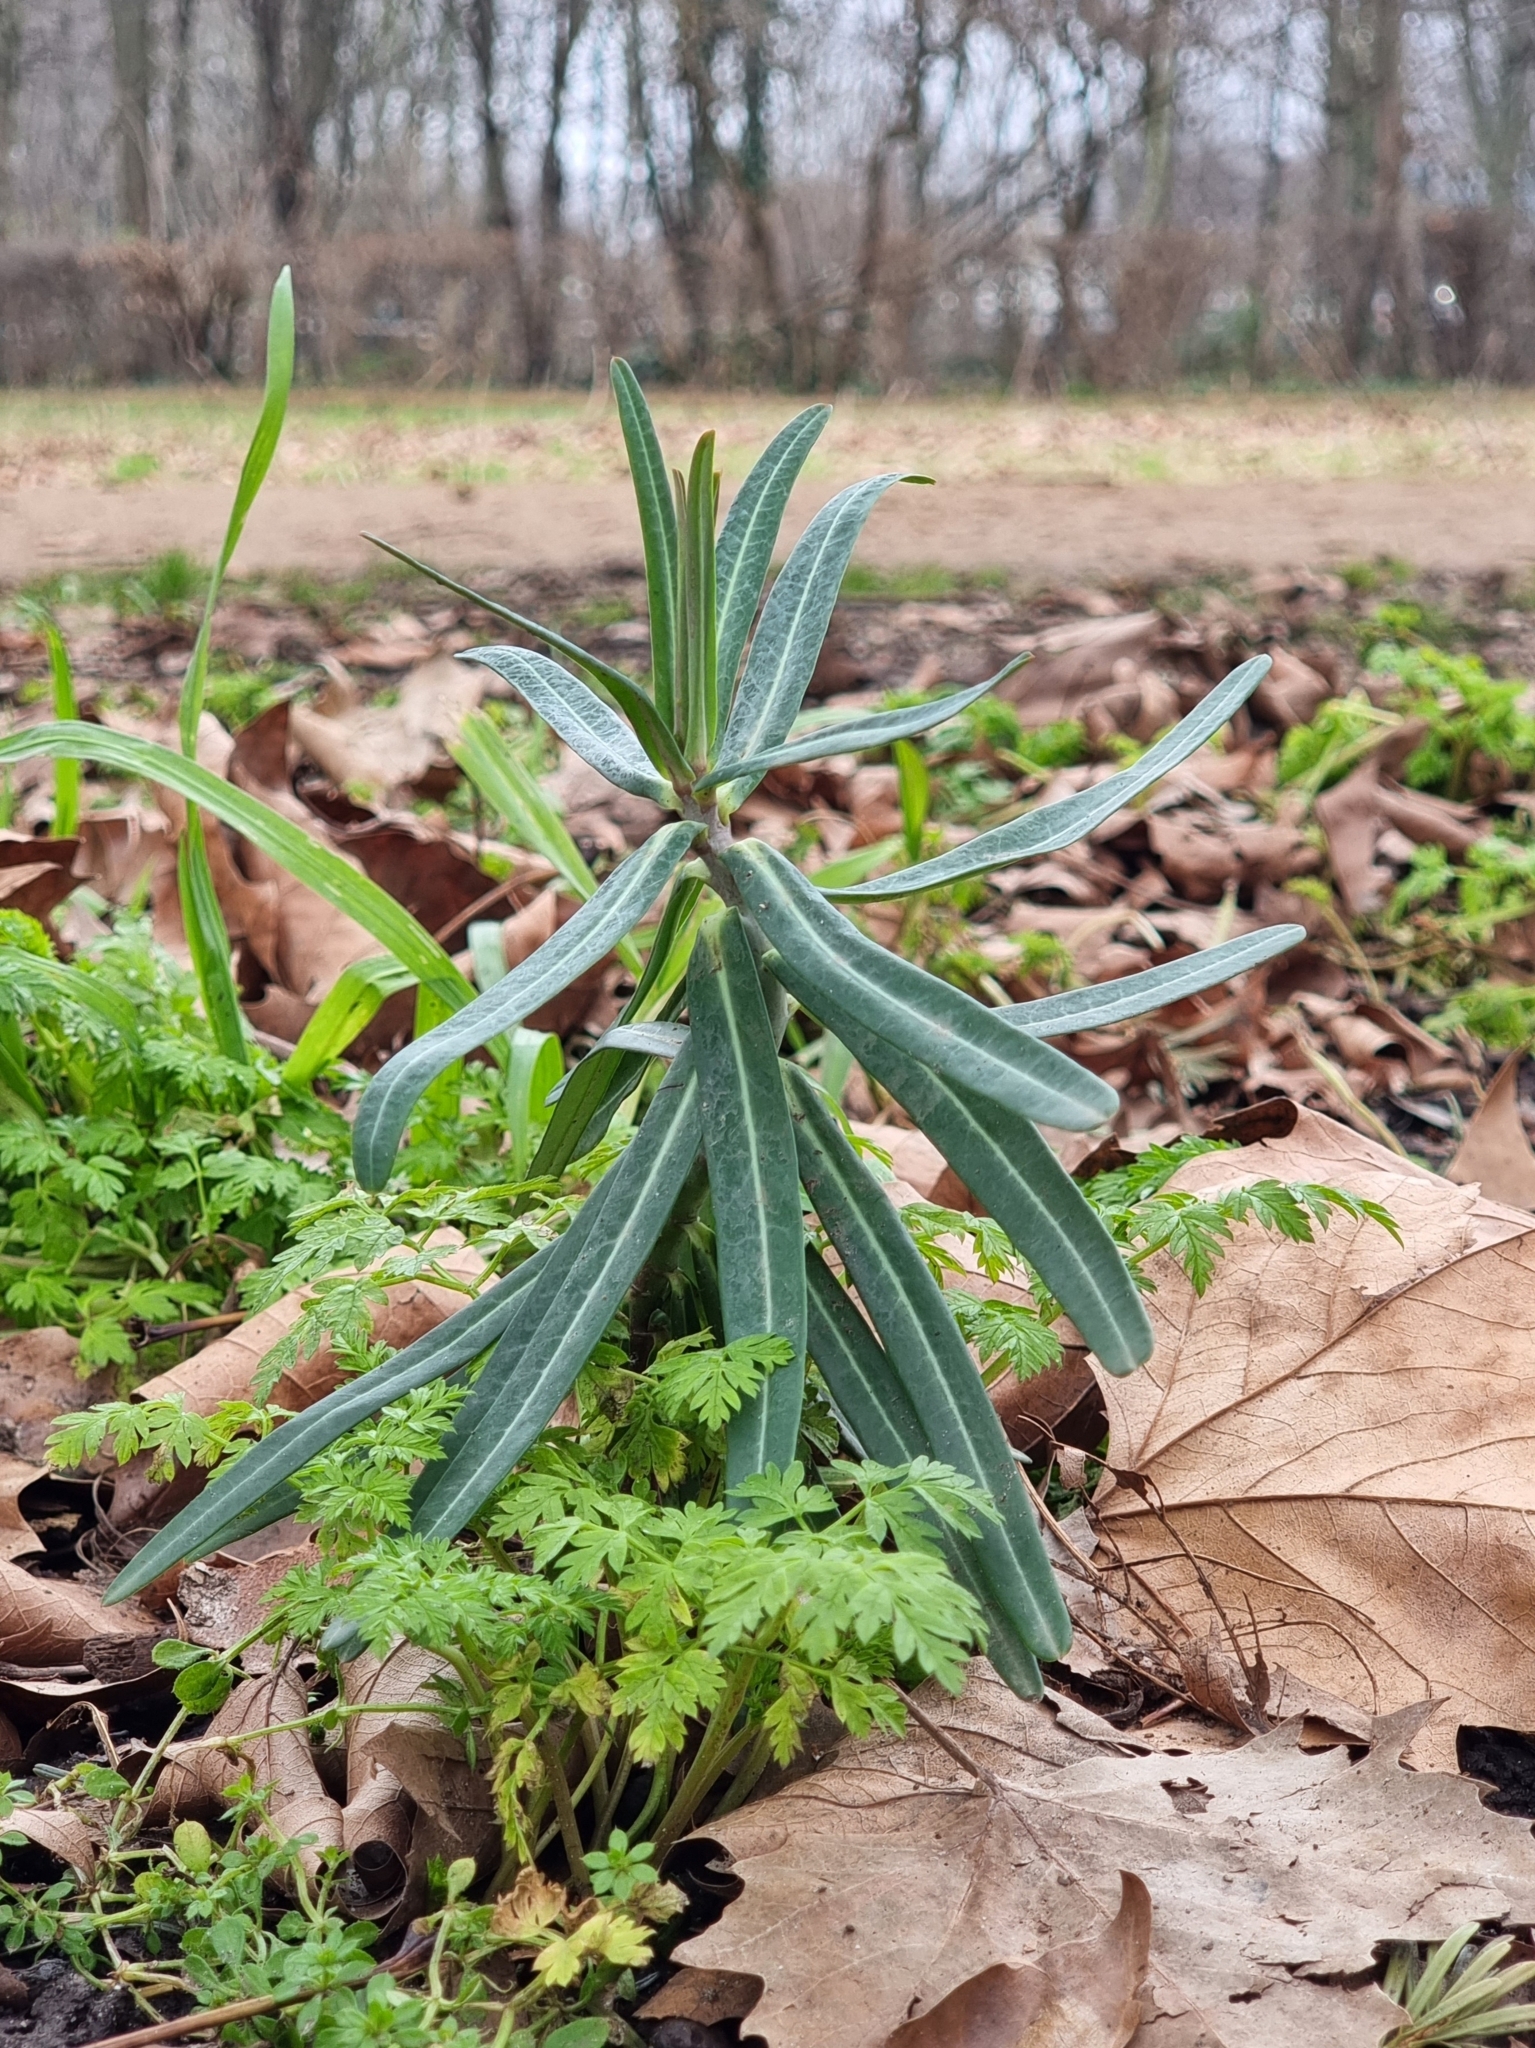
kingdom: Plantae
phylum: Tracheophyta
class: Magnoliopsida
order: Malpighiales
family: Euphorbiaceae
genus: Euphorbia
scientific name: Euphorbia lathyris
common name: Caper spurge
